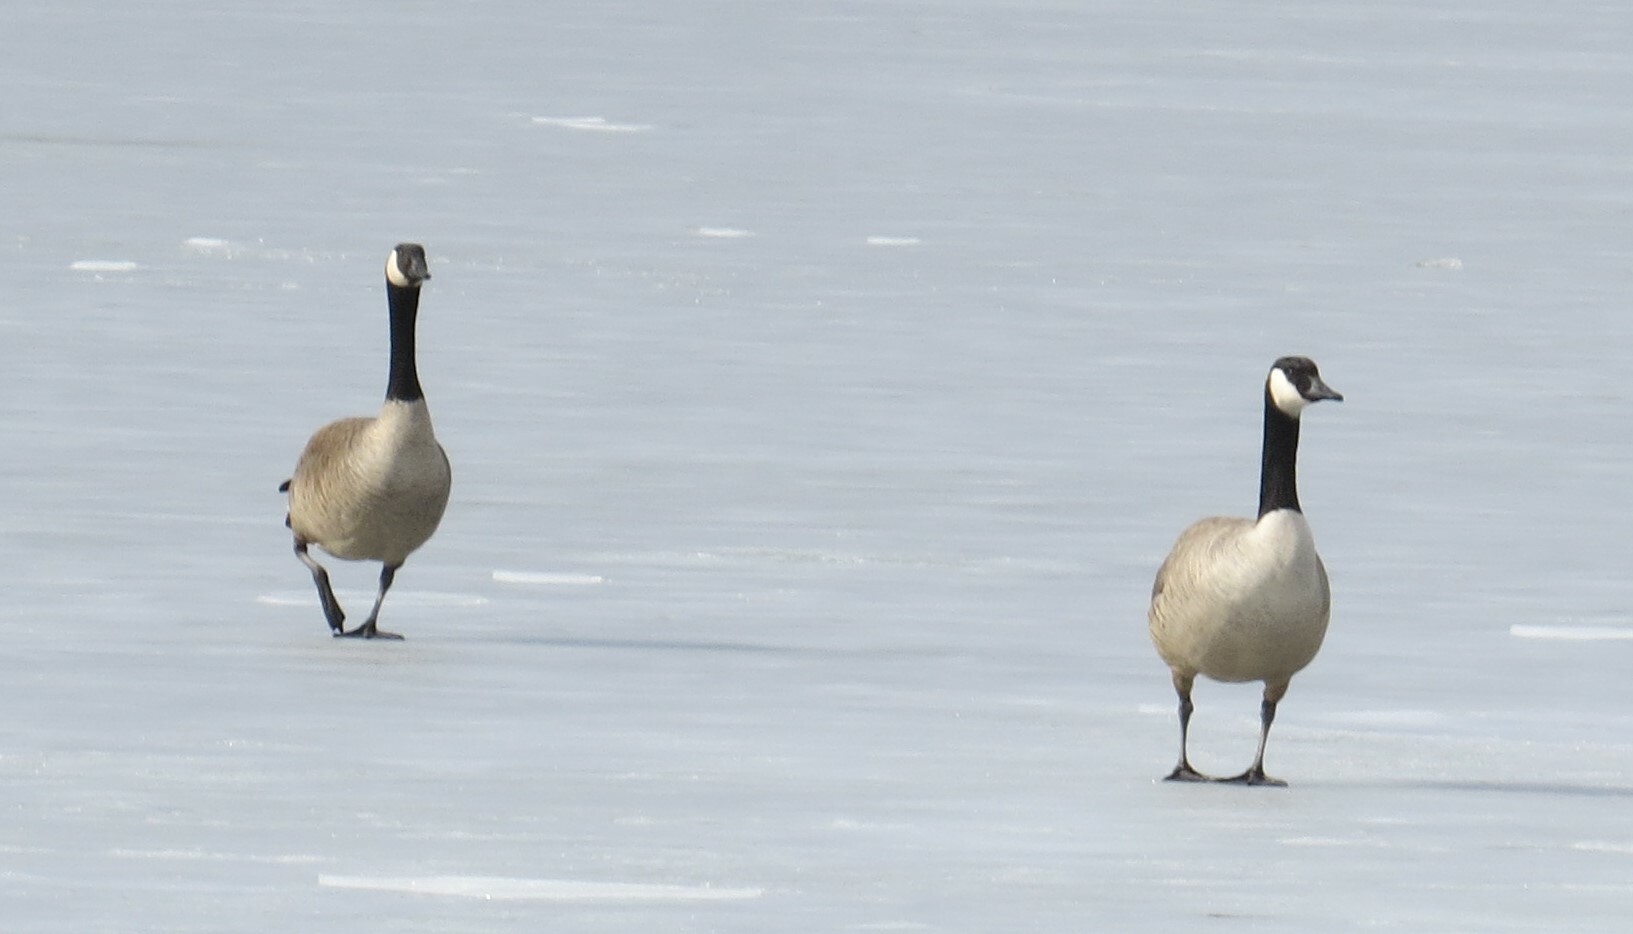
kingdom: Animalia
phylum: Chordata
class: Aves
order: Anseriformes
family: Anatidae
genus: Branta
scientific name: Branta canadensis
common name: Canada goose
